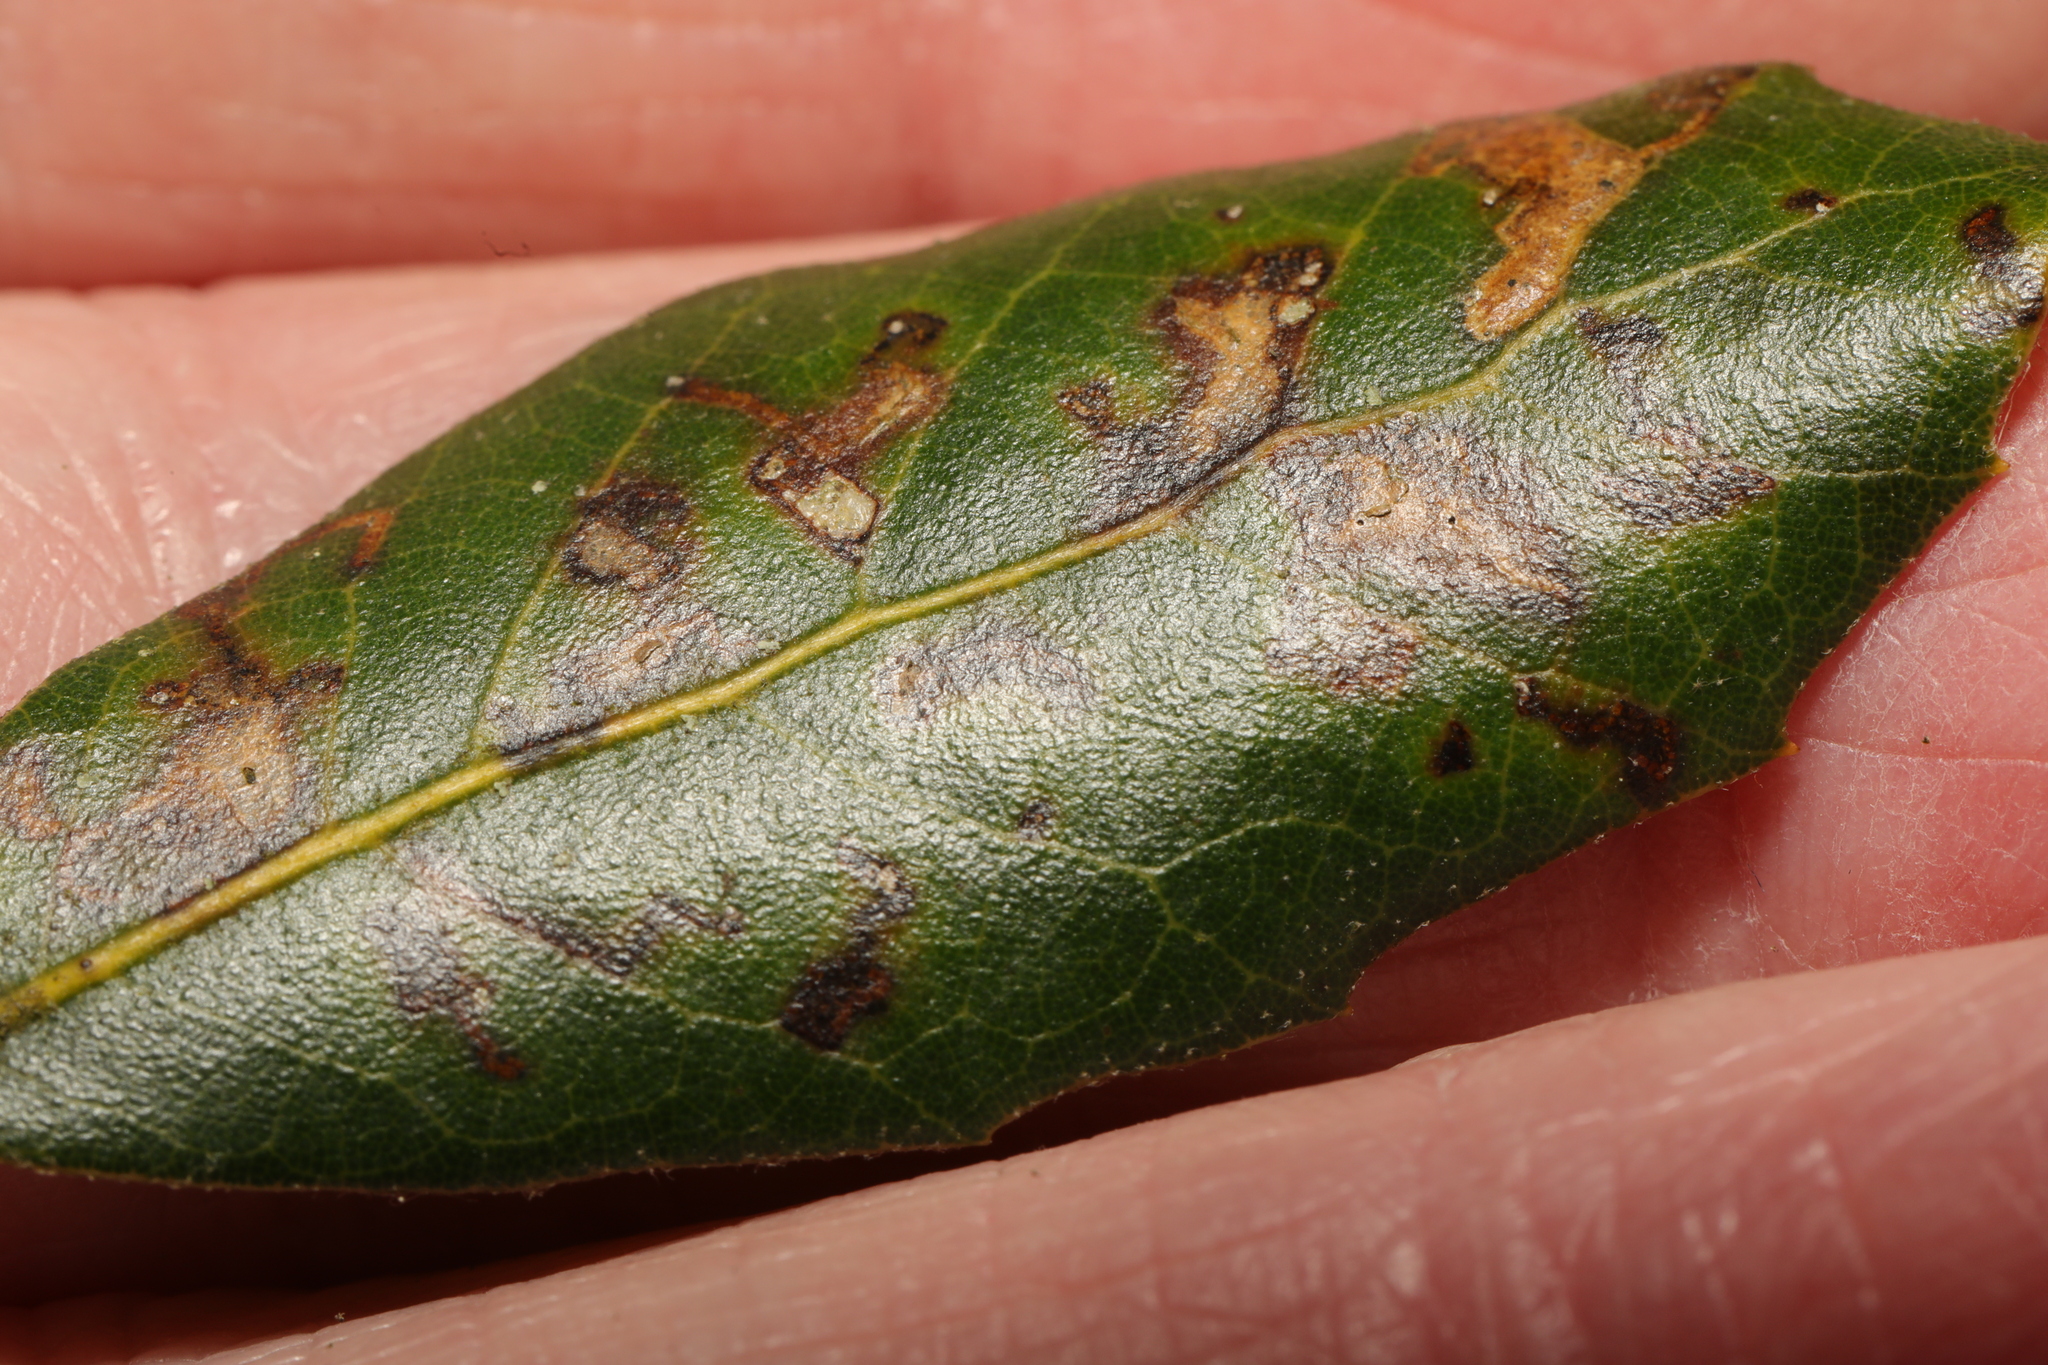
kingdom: Animalia
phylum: Arthropoda
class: Insecta
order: Lepidoptera
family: Nepticulidae
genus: Ectoedemia
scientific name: Ectoedemia heringella
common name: New holm-oak pigmy
